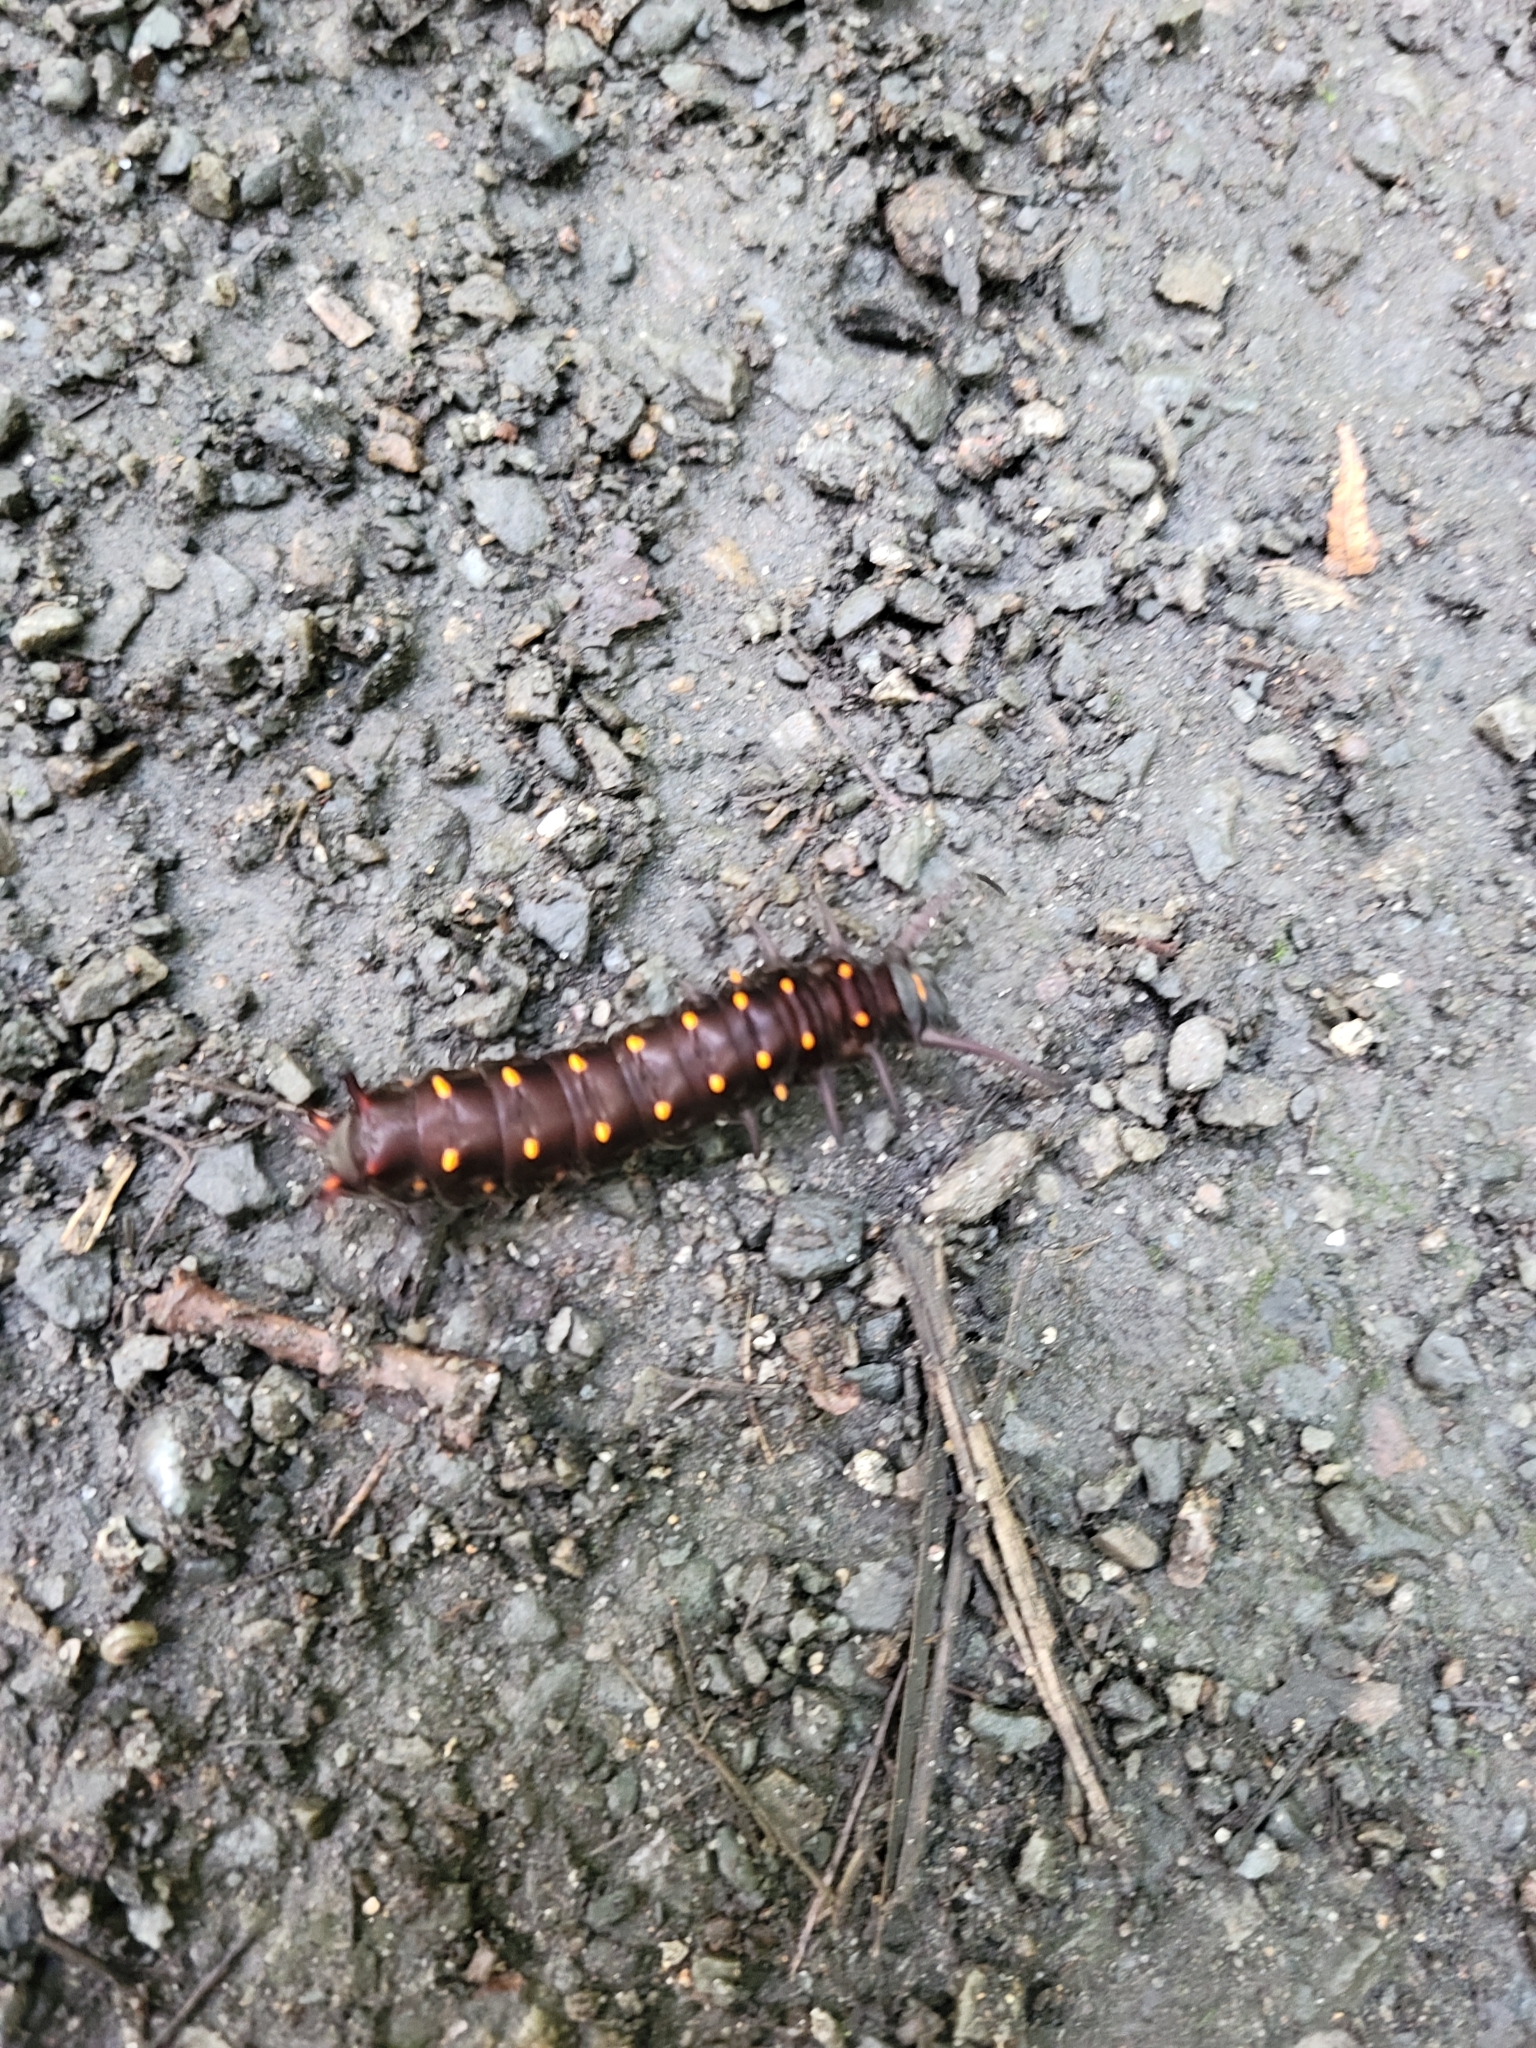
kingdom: Animalia
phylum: Arthropoda
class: Insecta
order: Lepidoptera
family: Papilionidae
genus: Battus
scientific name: Battus philenor
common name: Pipevine swallowtail
